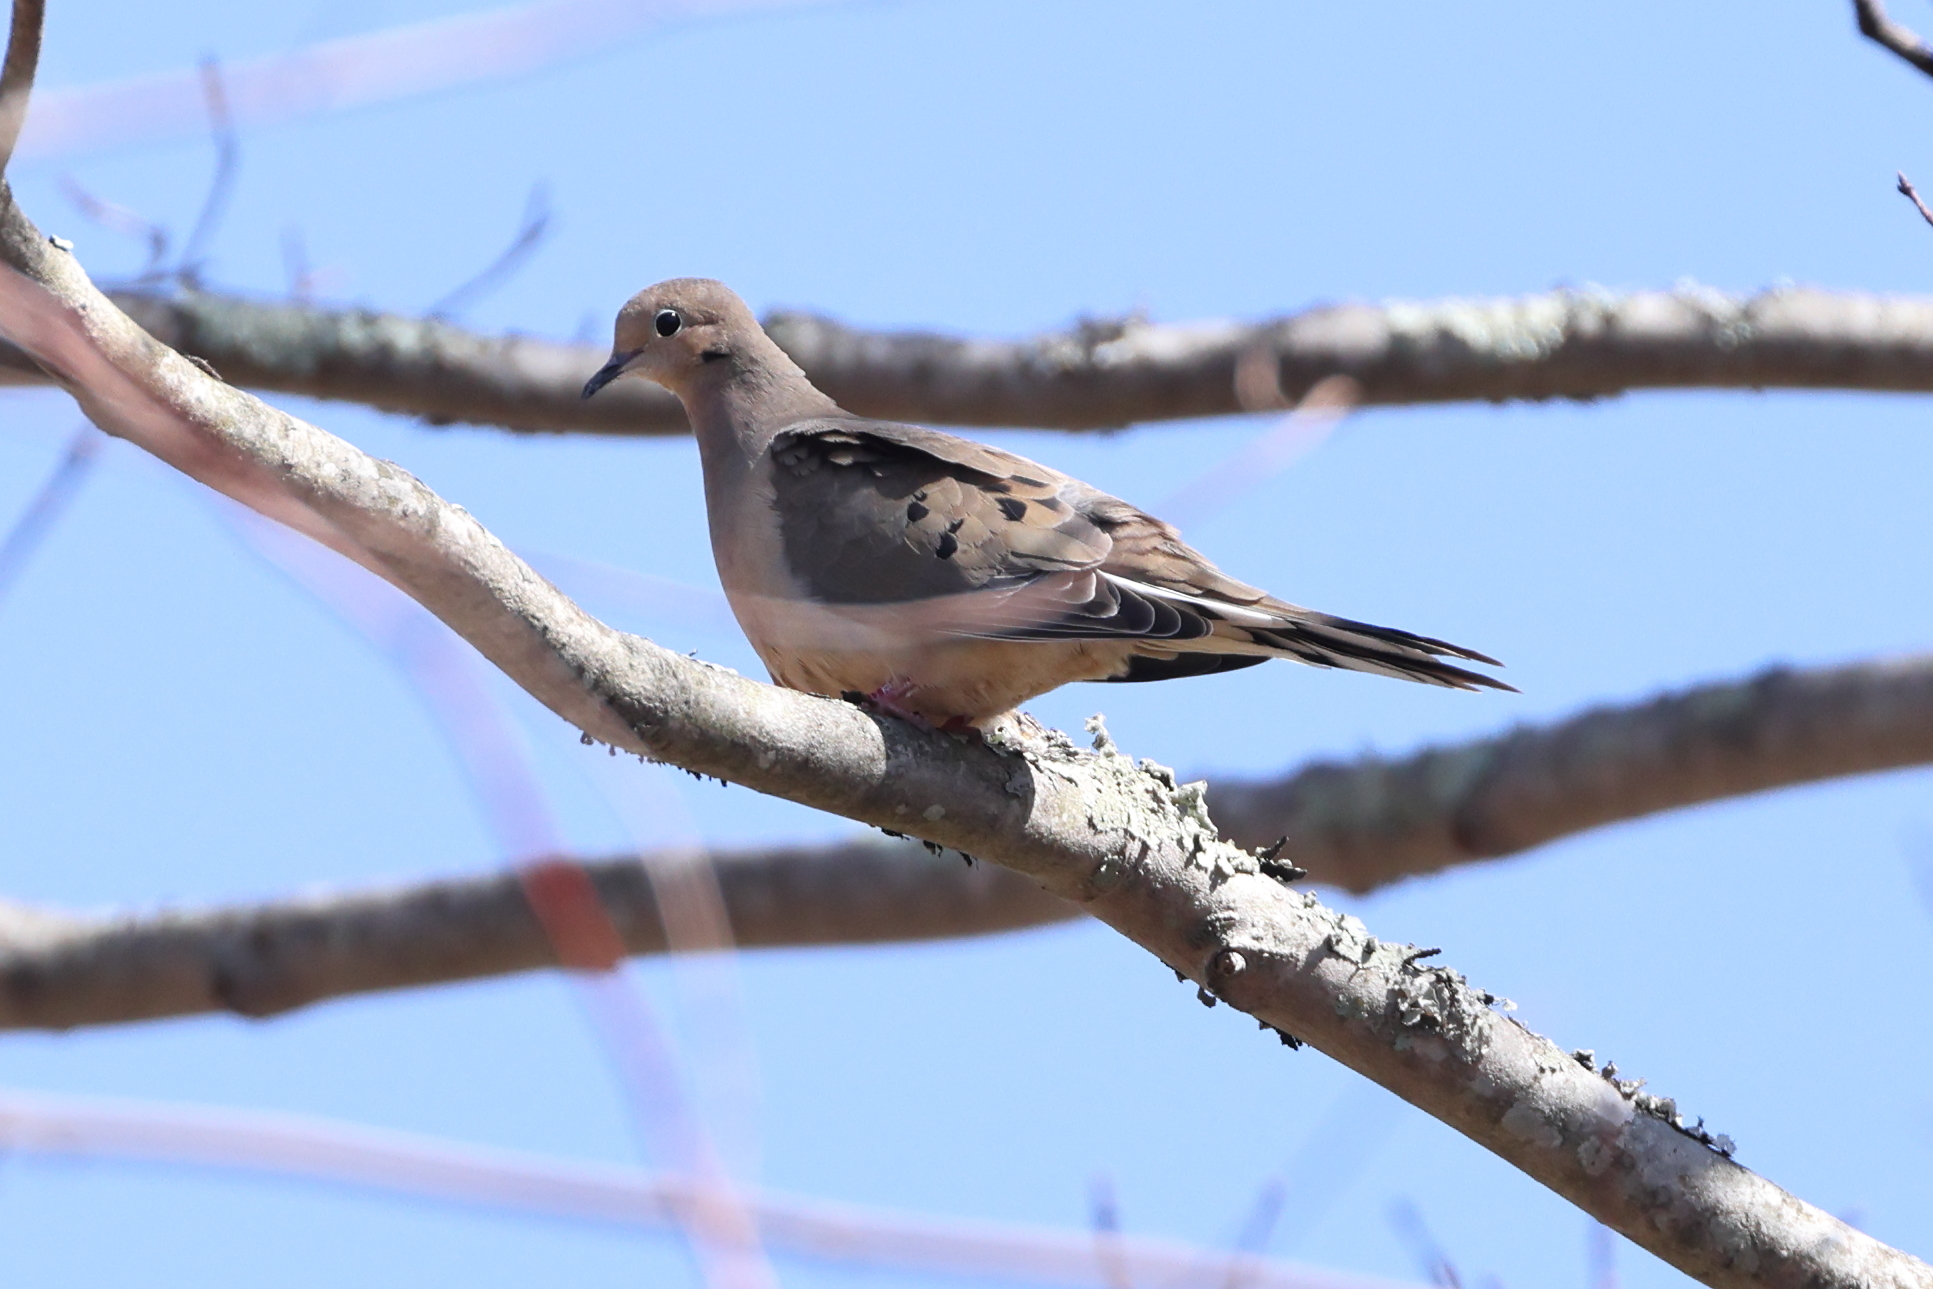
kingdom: Animalia
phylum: Chordata
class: Aves
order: Columbiformes
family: Columbidae
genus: Zenaida
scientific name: Zenaida macroura
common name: Mourning dove
